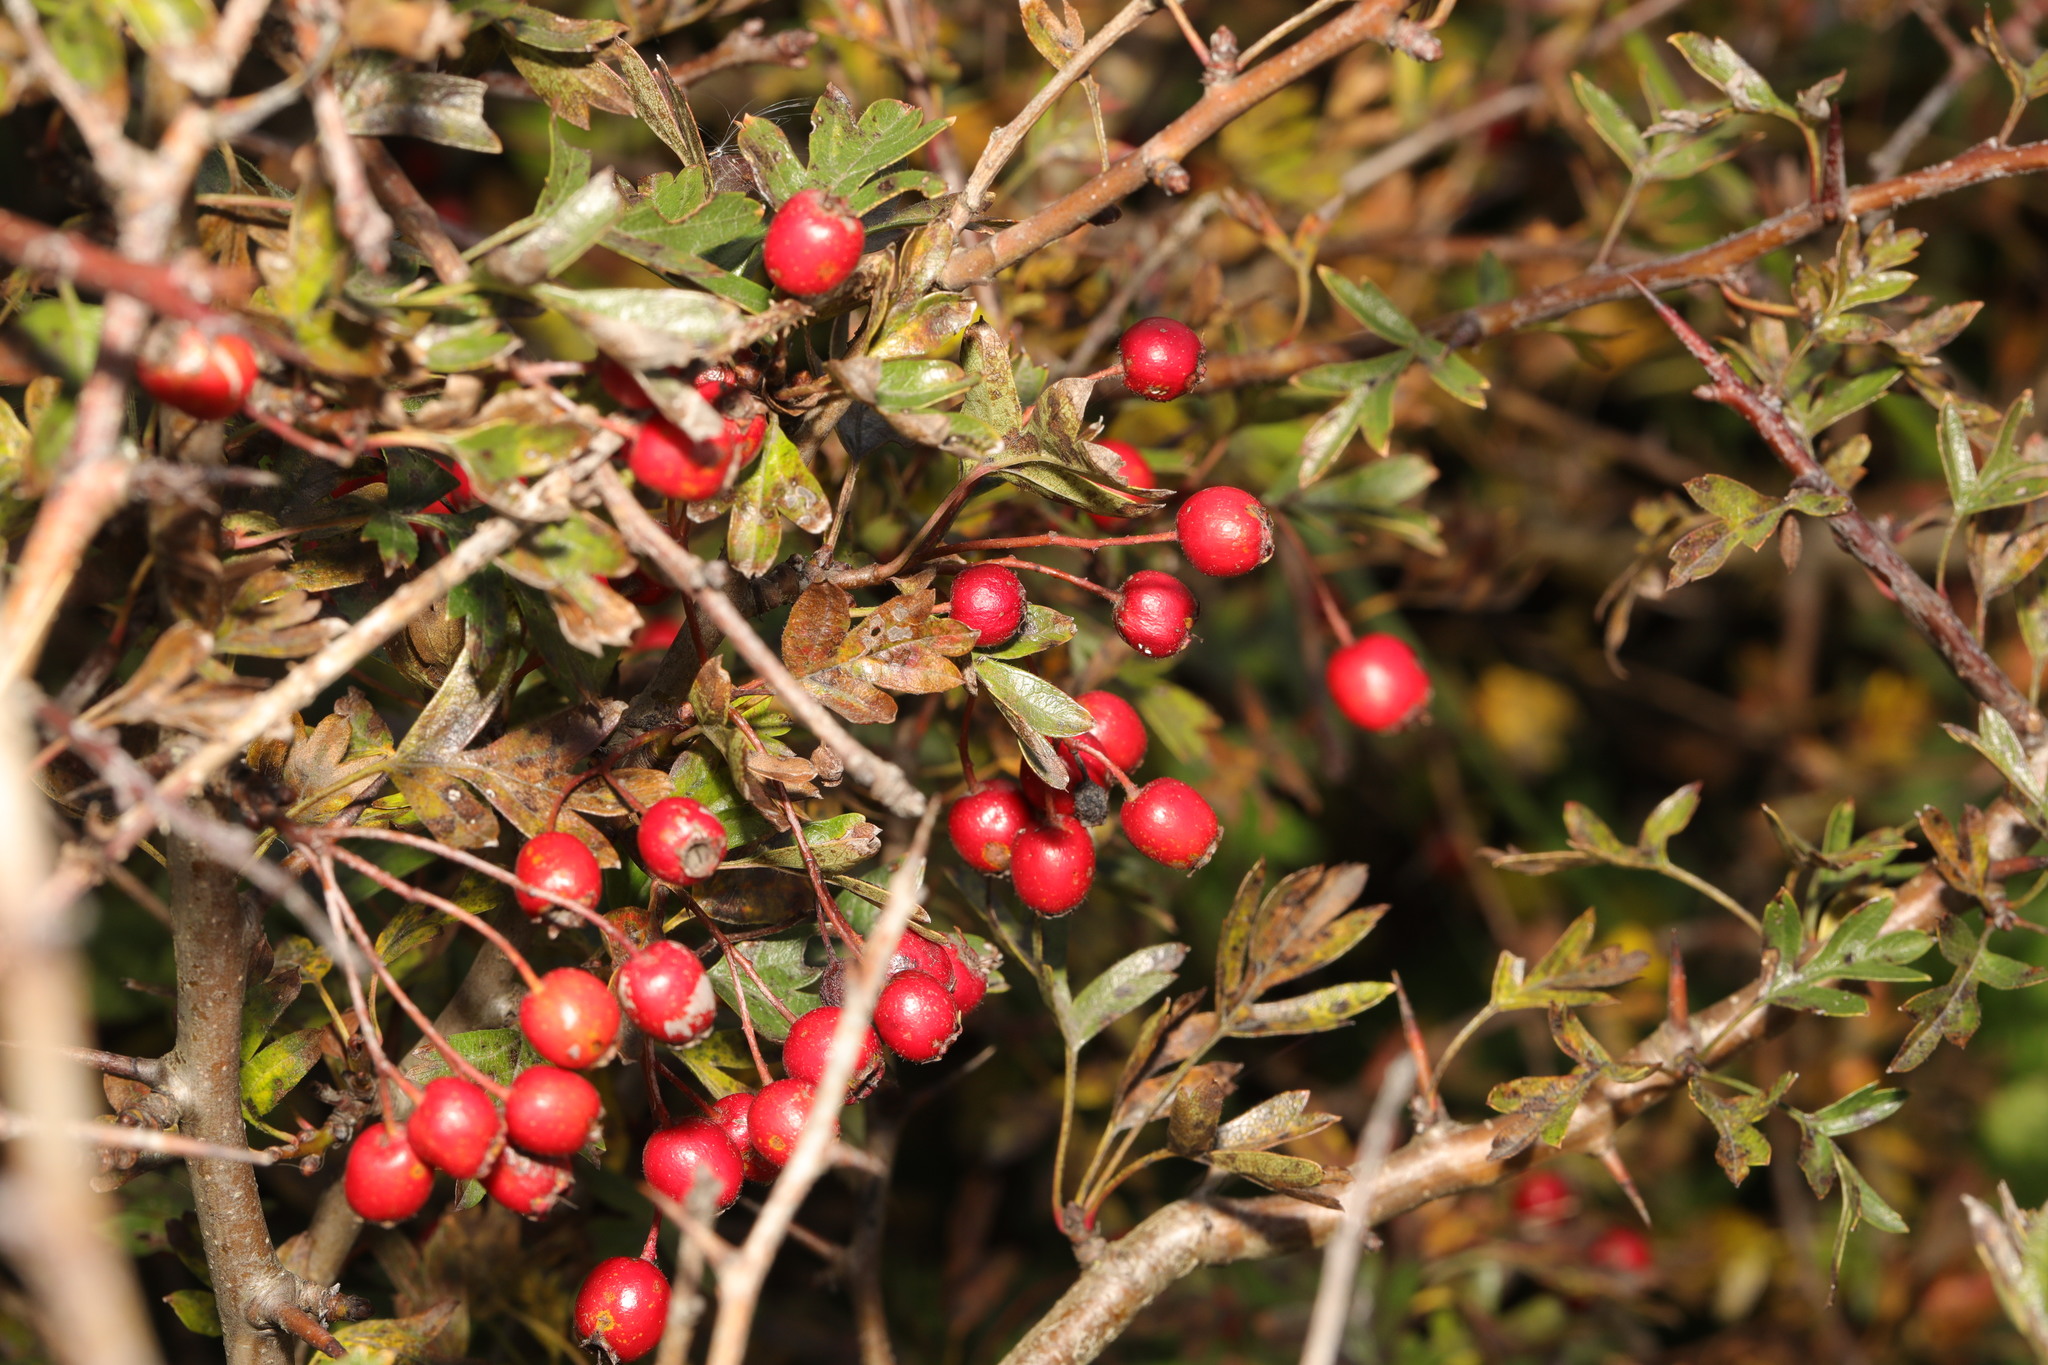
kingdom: Plantae
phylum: Tracheophyta
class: Magnoliopsida
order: Rosales
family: Rosaceae
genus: Crataegus
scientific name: Crataegus monogyna
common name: Hawthorn
